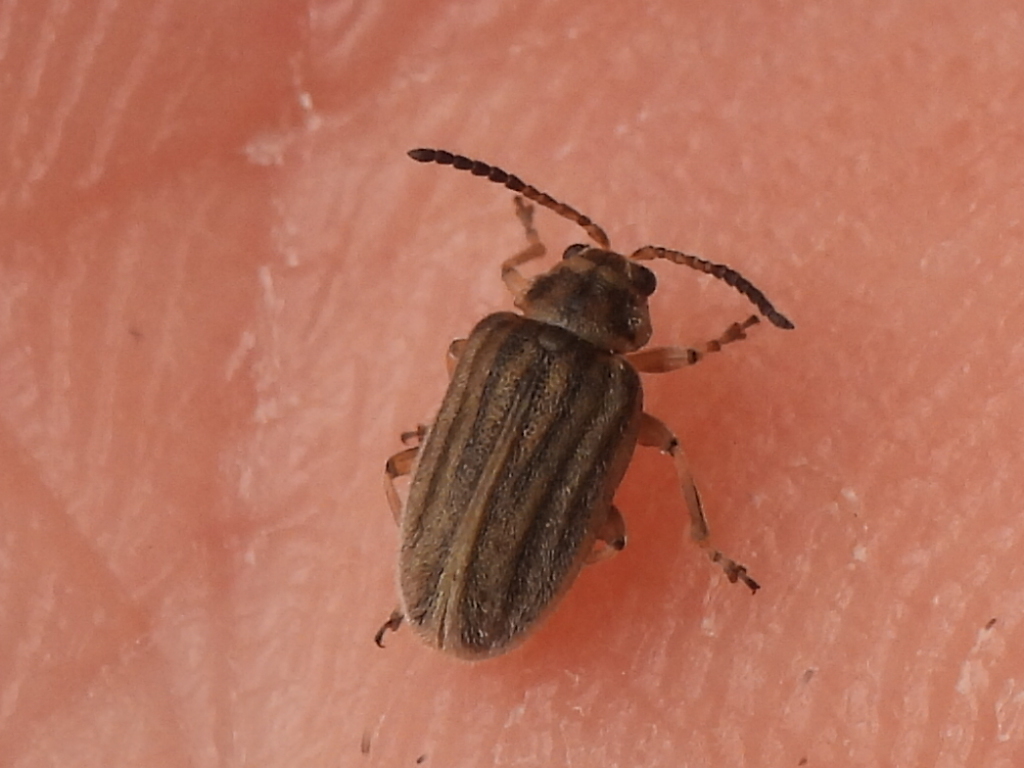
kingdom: Animalia
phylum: Arthropoda
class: Insecta
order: Coleoptera
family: Chrysomelidae
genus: Ophraella
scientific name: Ophraella communa
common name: Ragweed leaf beetle
